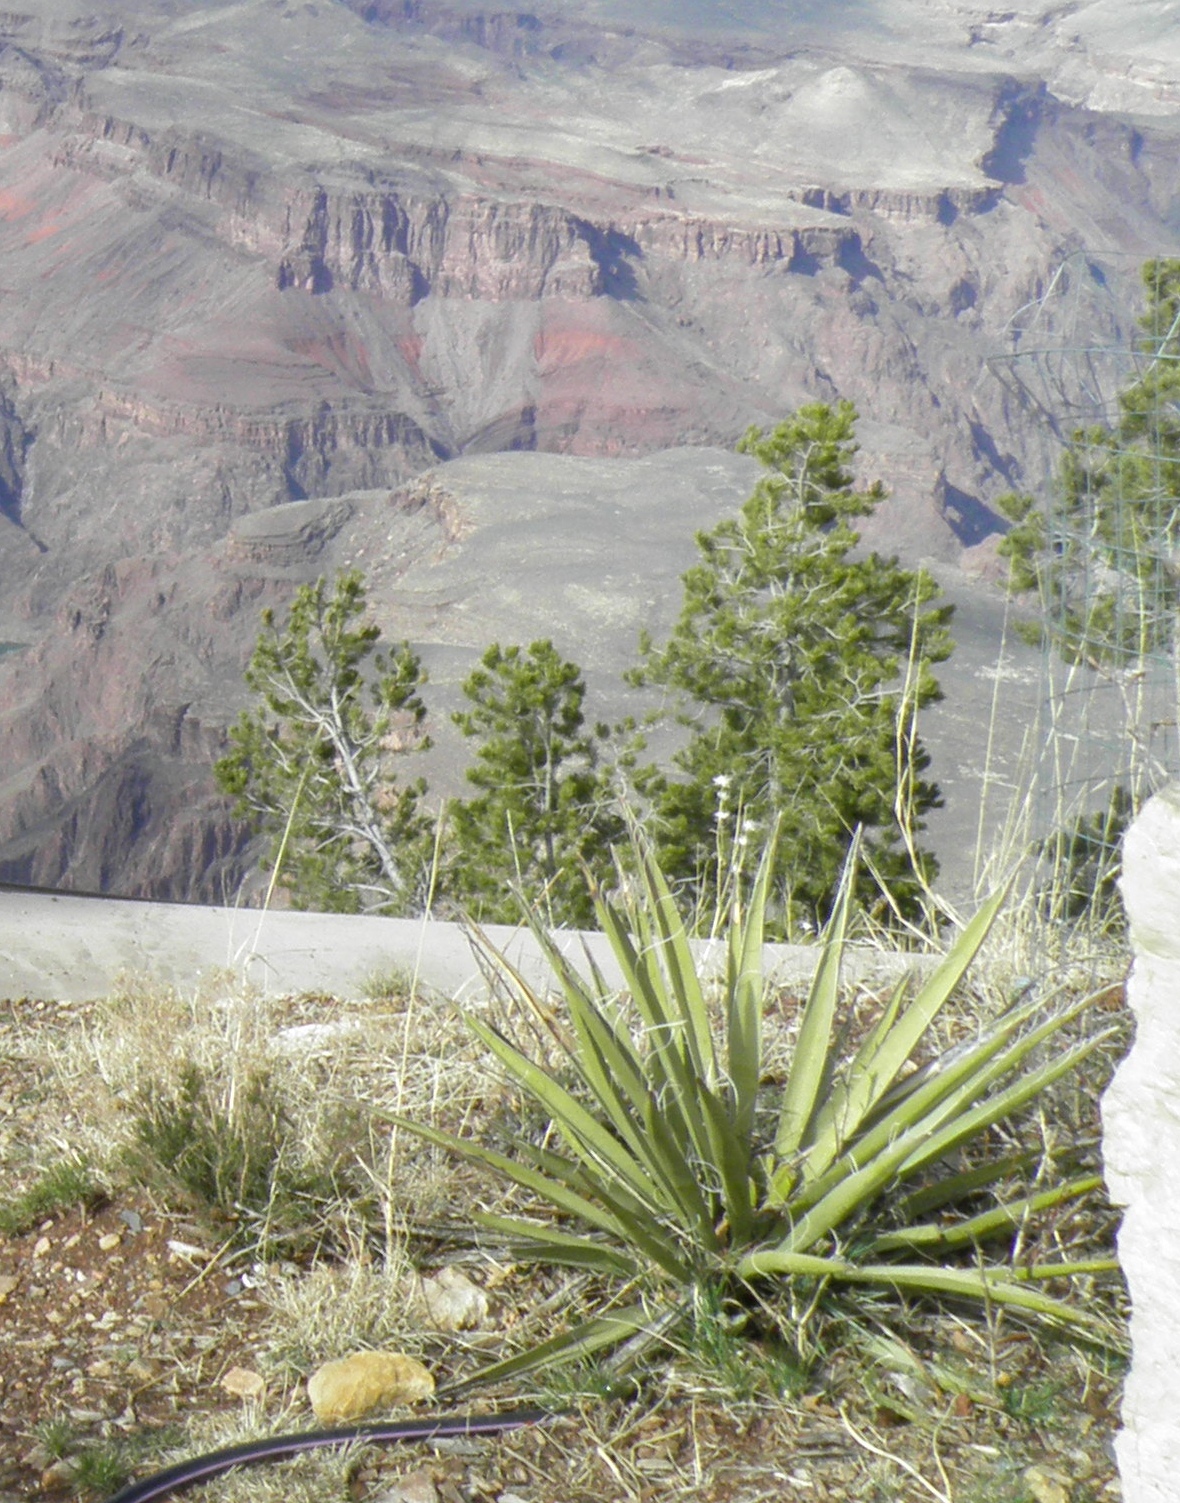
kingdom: Plantae
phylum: Tracheophyta
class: Liliopsida
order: Asparagales
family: Asparagaceae
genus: Yucca
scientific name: Yucca baccata
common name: Banana yucca
